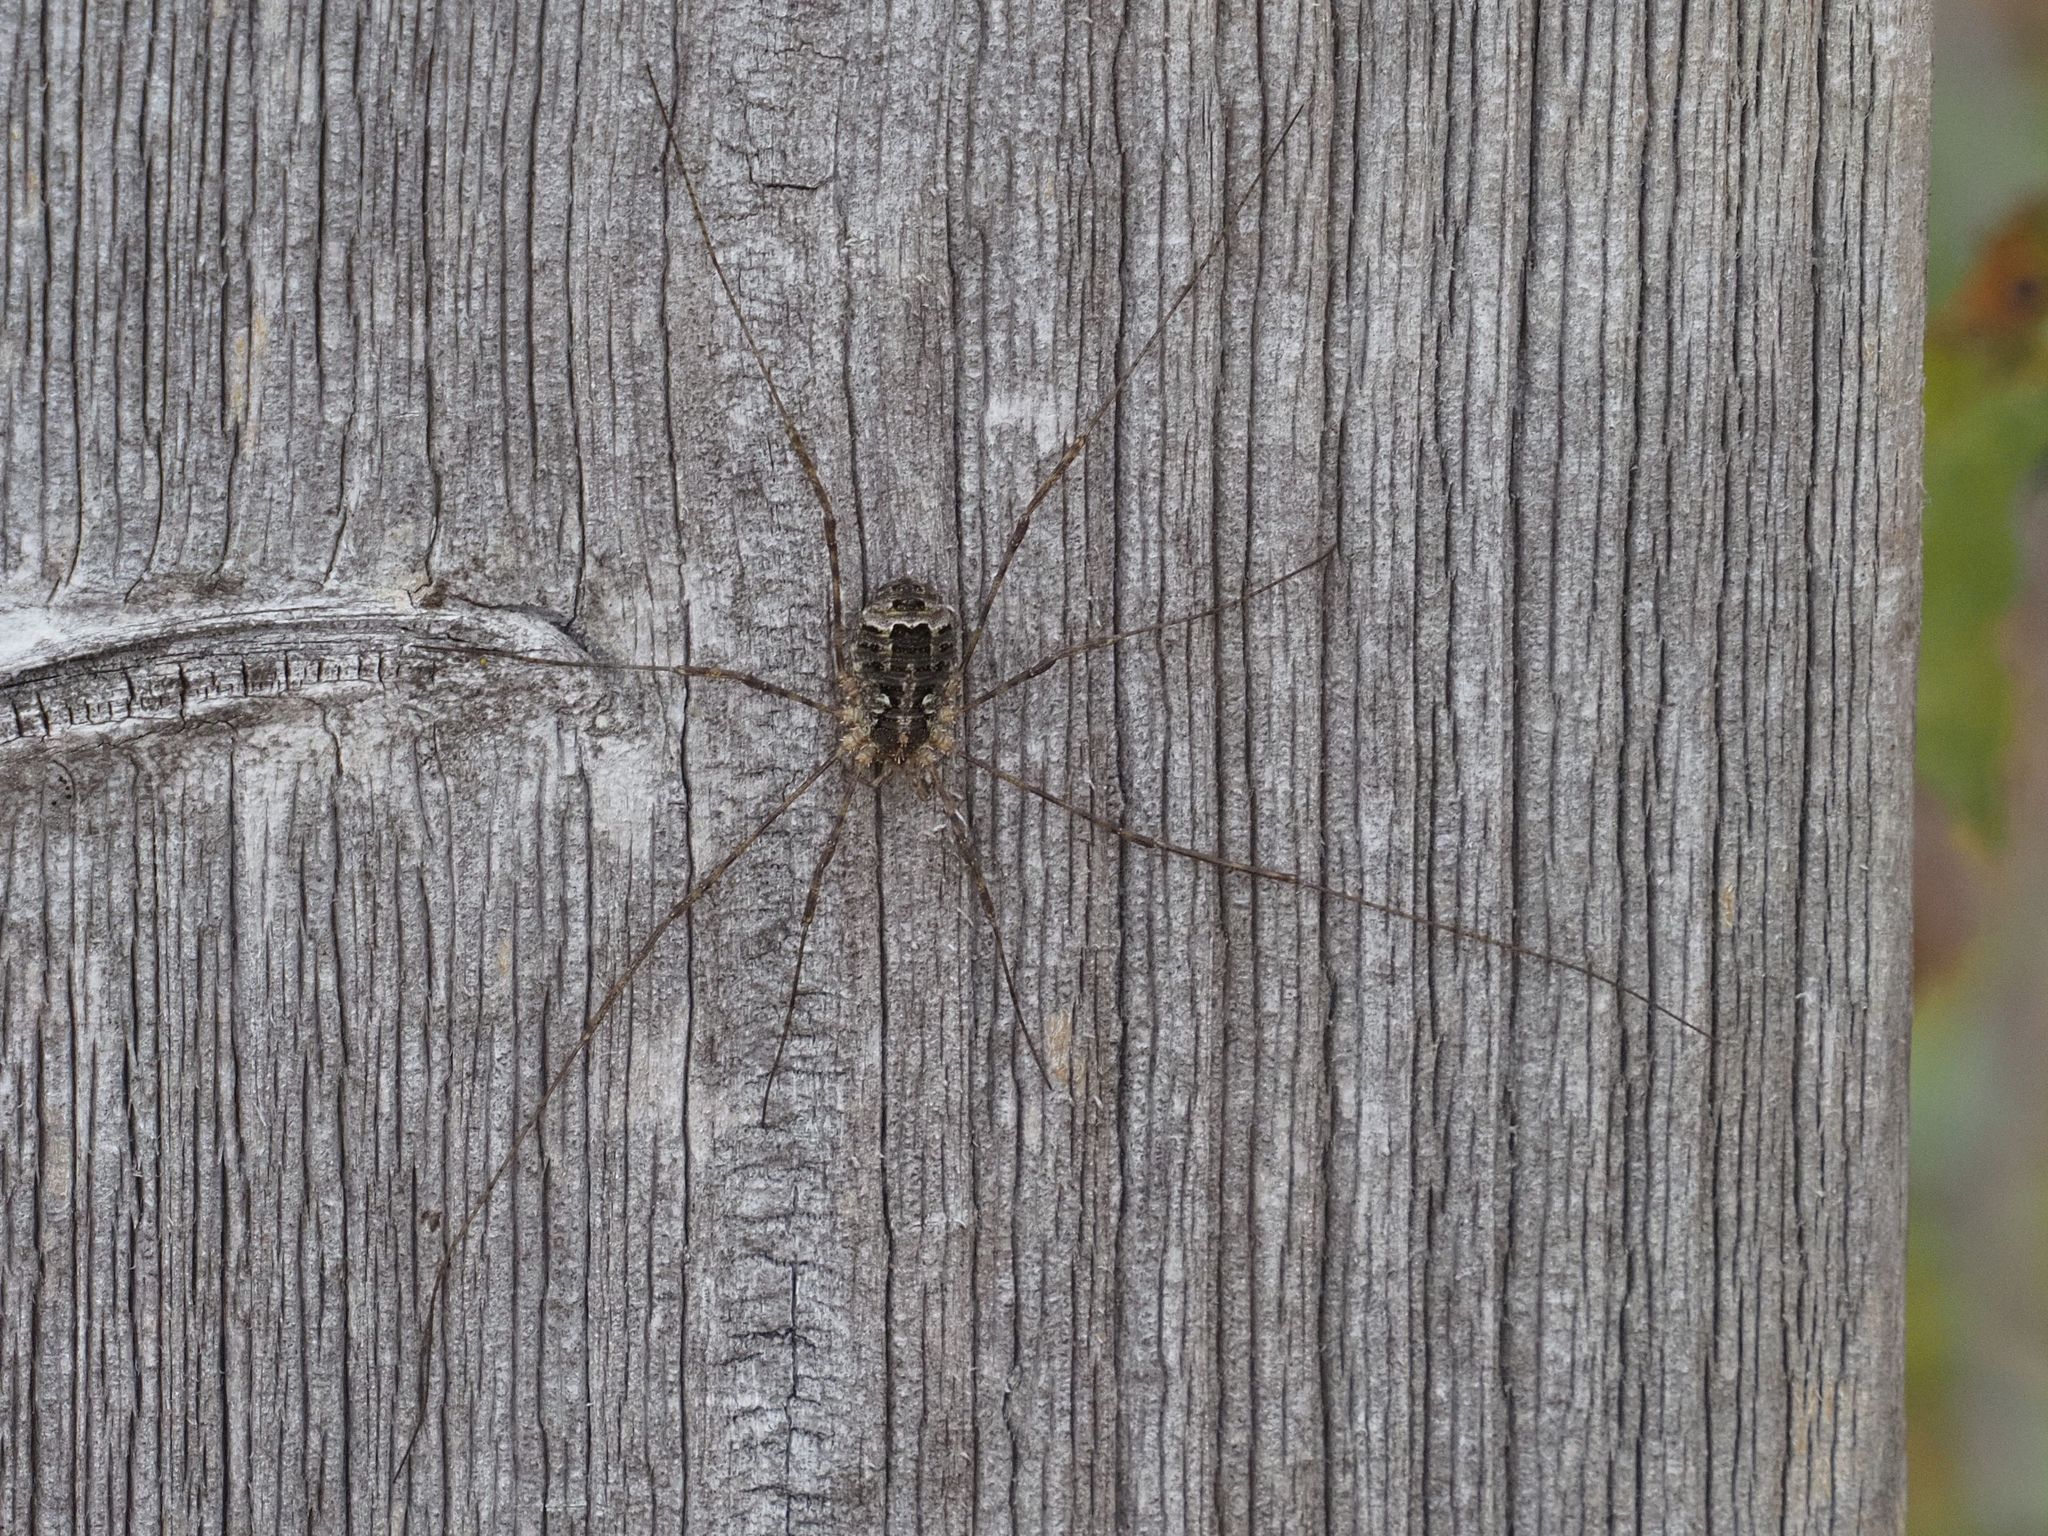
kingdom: Animalia
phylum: Arthropoda
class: Arachnida
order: Opiliones
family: Phalangiidae
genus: Lacinius
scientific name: Lacinius dentiger
